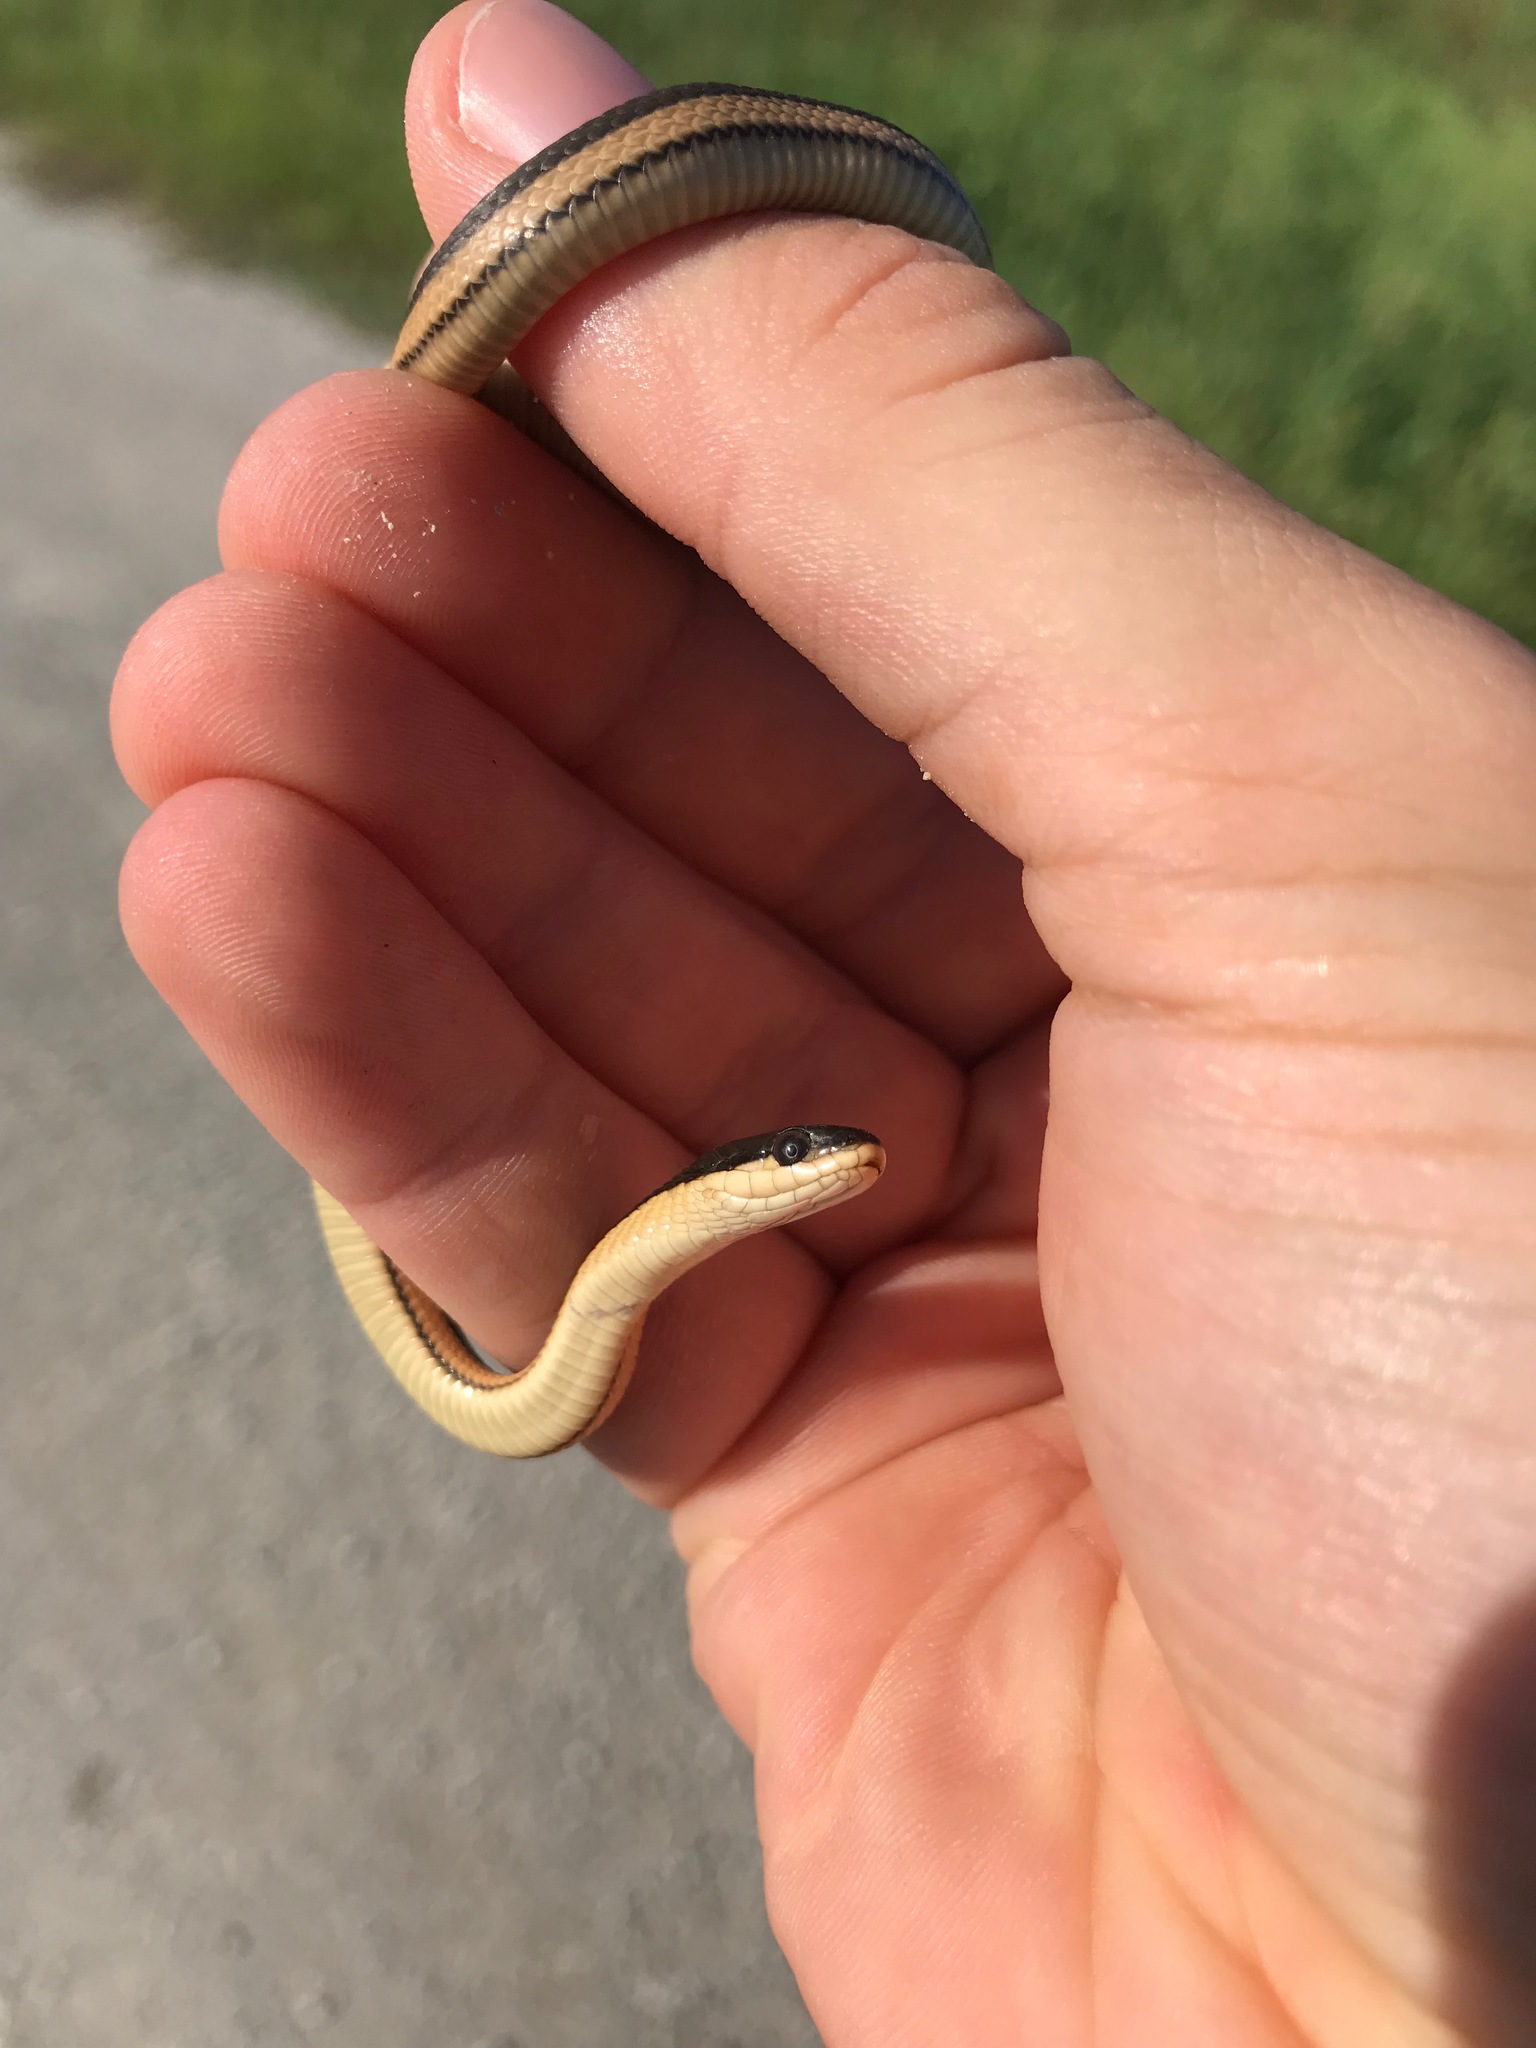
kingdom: Animalia
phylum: Chordata
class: Squamata
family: Colubridae
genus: Regina
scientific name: Regina grahamii
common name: Graham's crayfish snake
